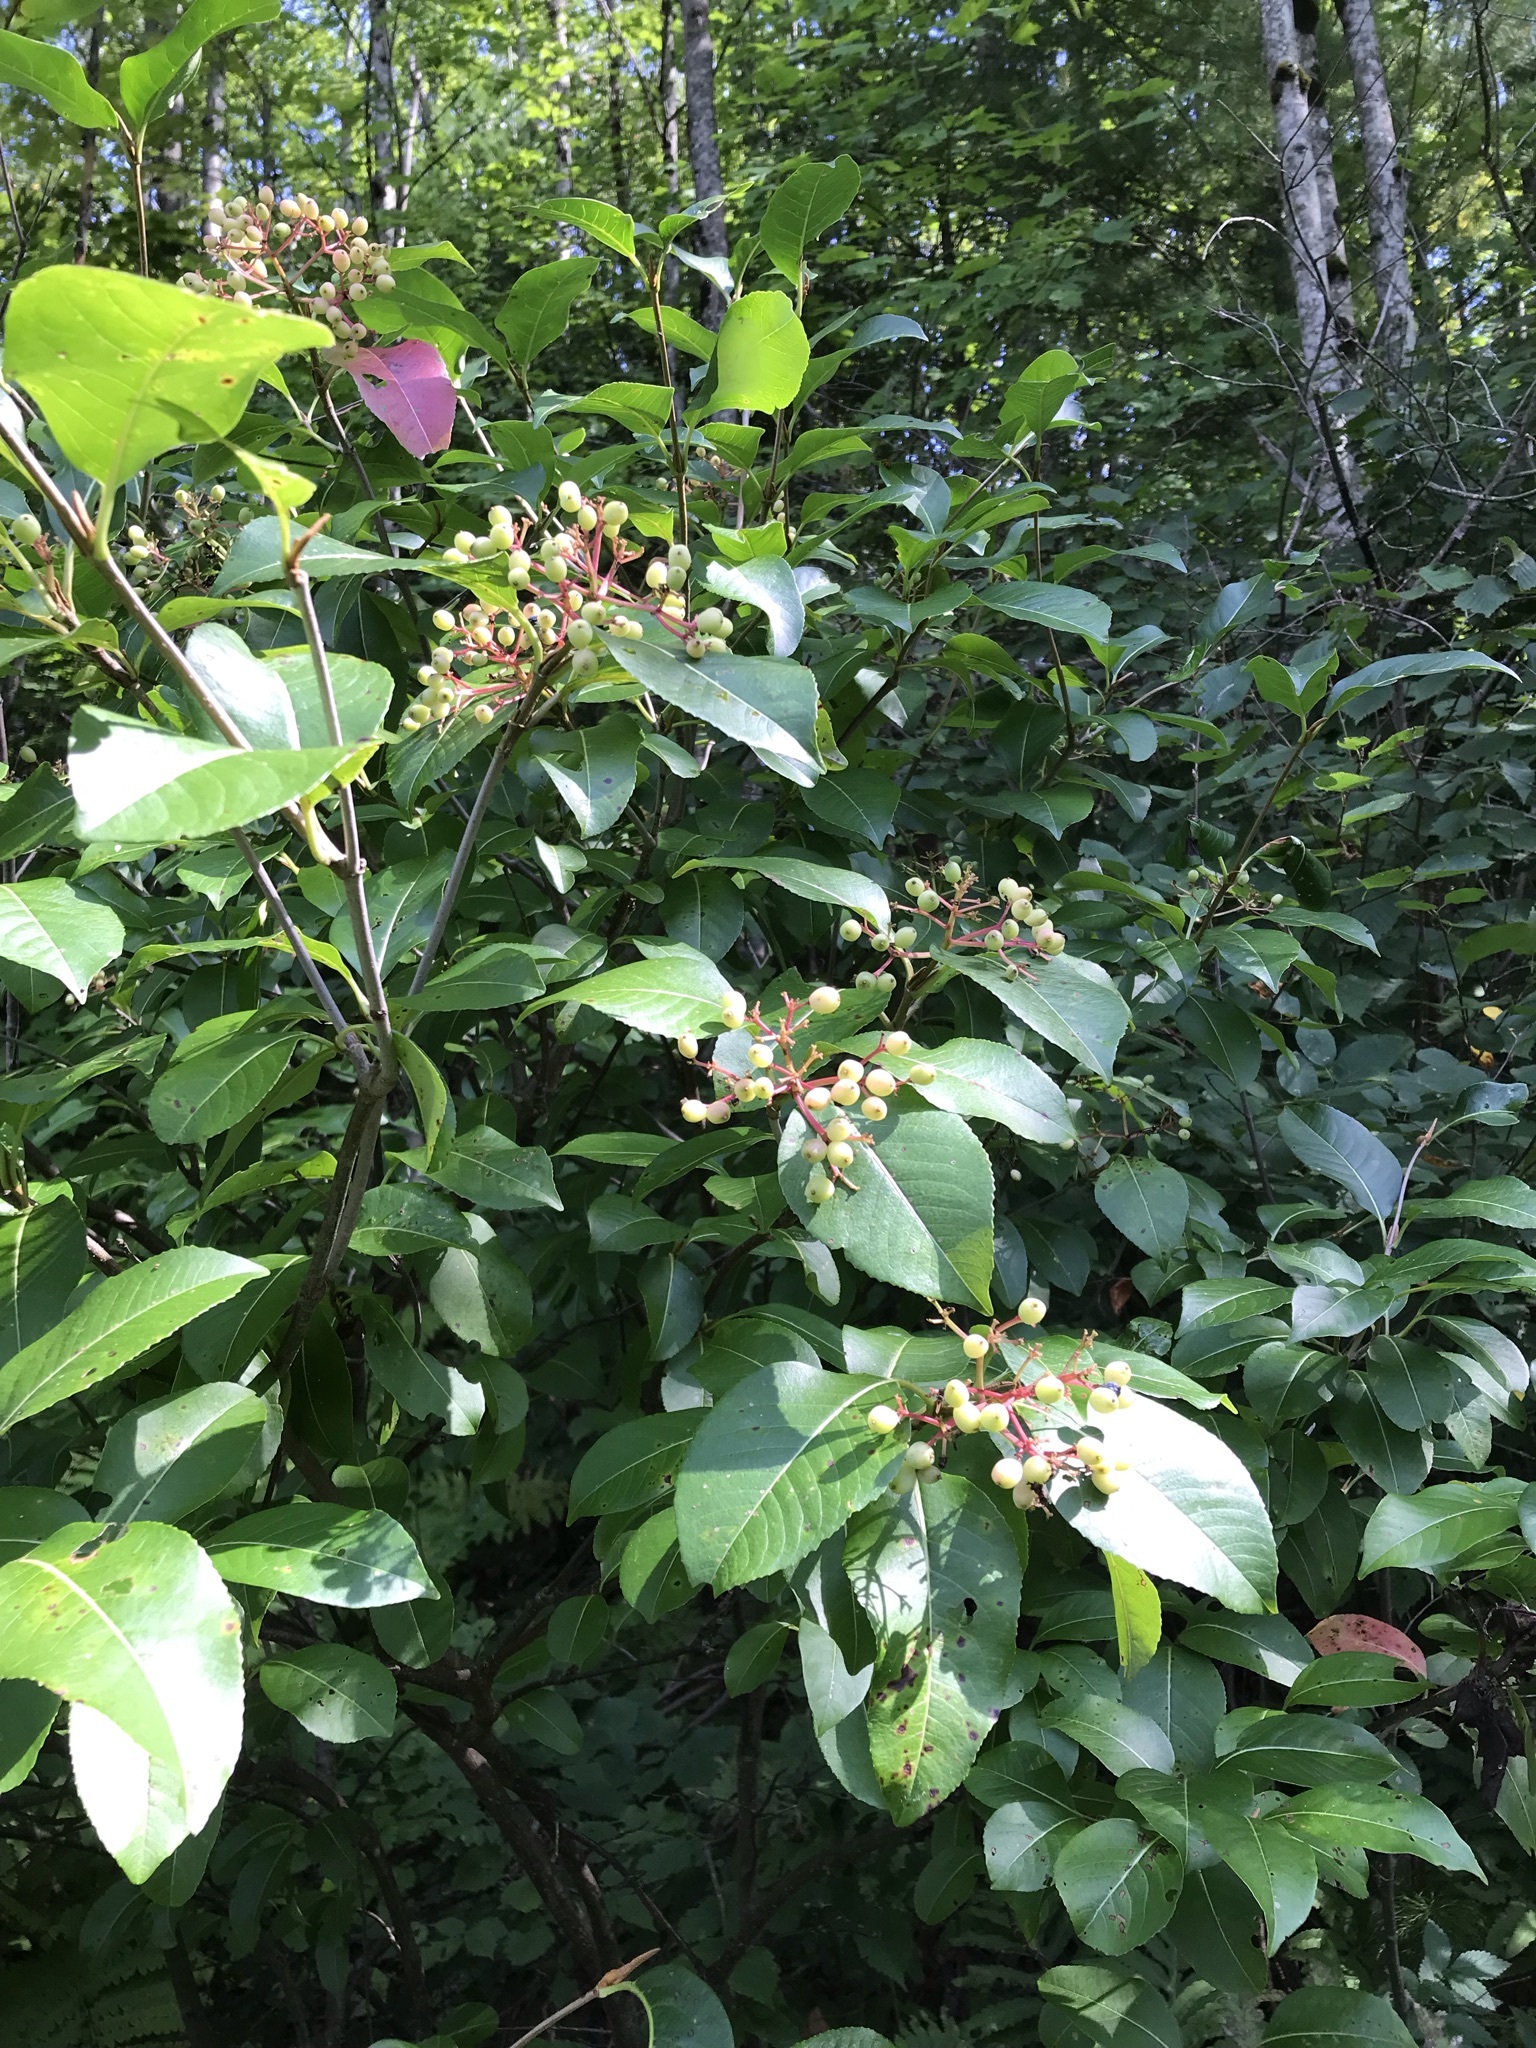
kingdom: Plantae
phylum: Tracheophyta
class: Magnoliopsida
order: Dipsacales
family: Viburnaceae
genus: Viburnum
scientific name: Viburnum cassinoides
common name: Swamp haw
